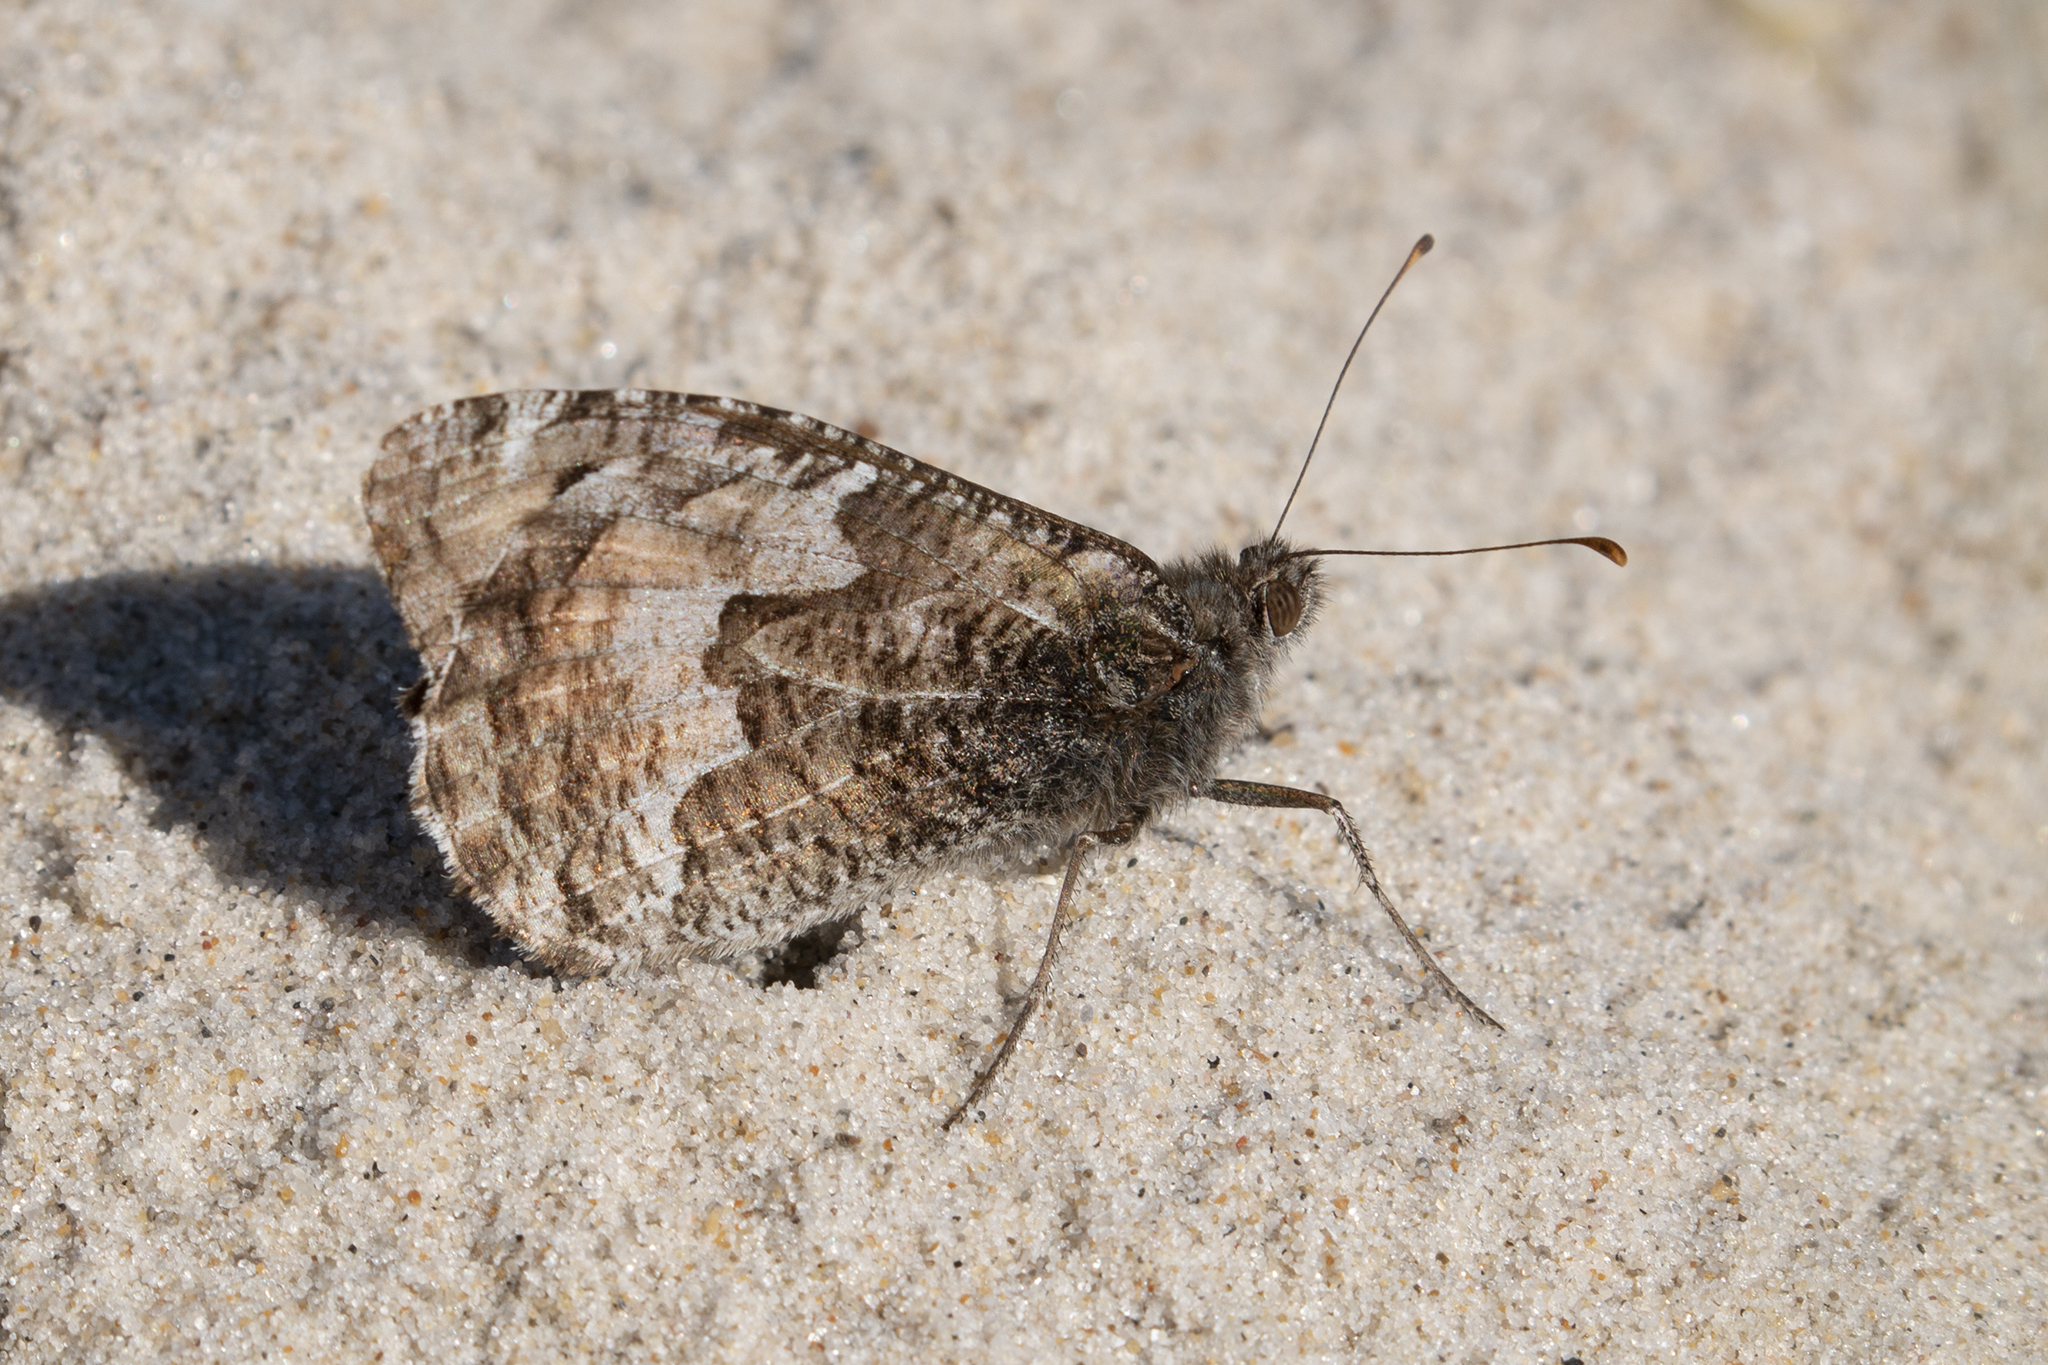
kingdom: Animalia
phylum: Arthropoda
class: Insecta
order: Lepidoptera
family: Nymphalidae
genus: Hipparchia
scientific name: Hipparchia semele
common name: Grayling
